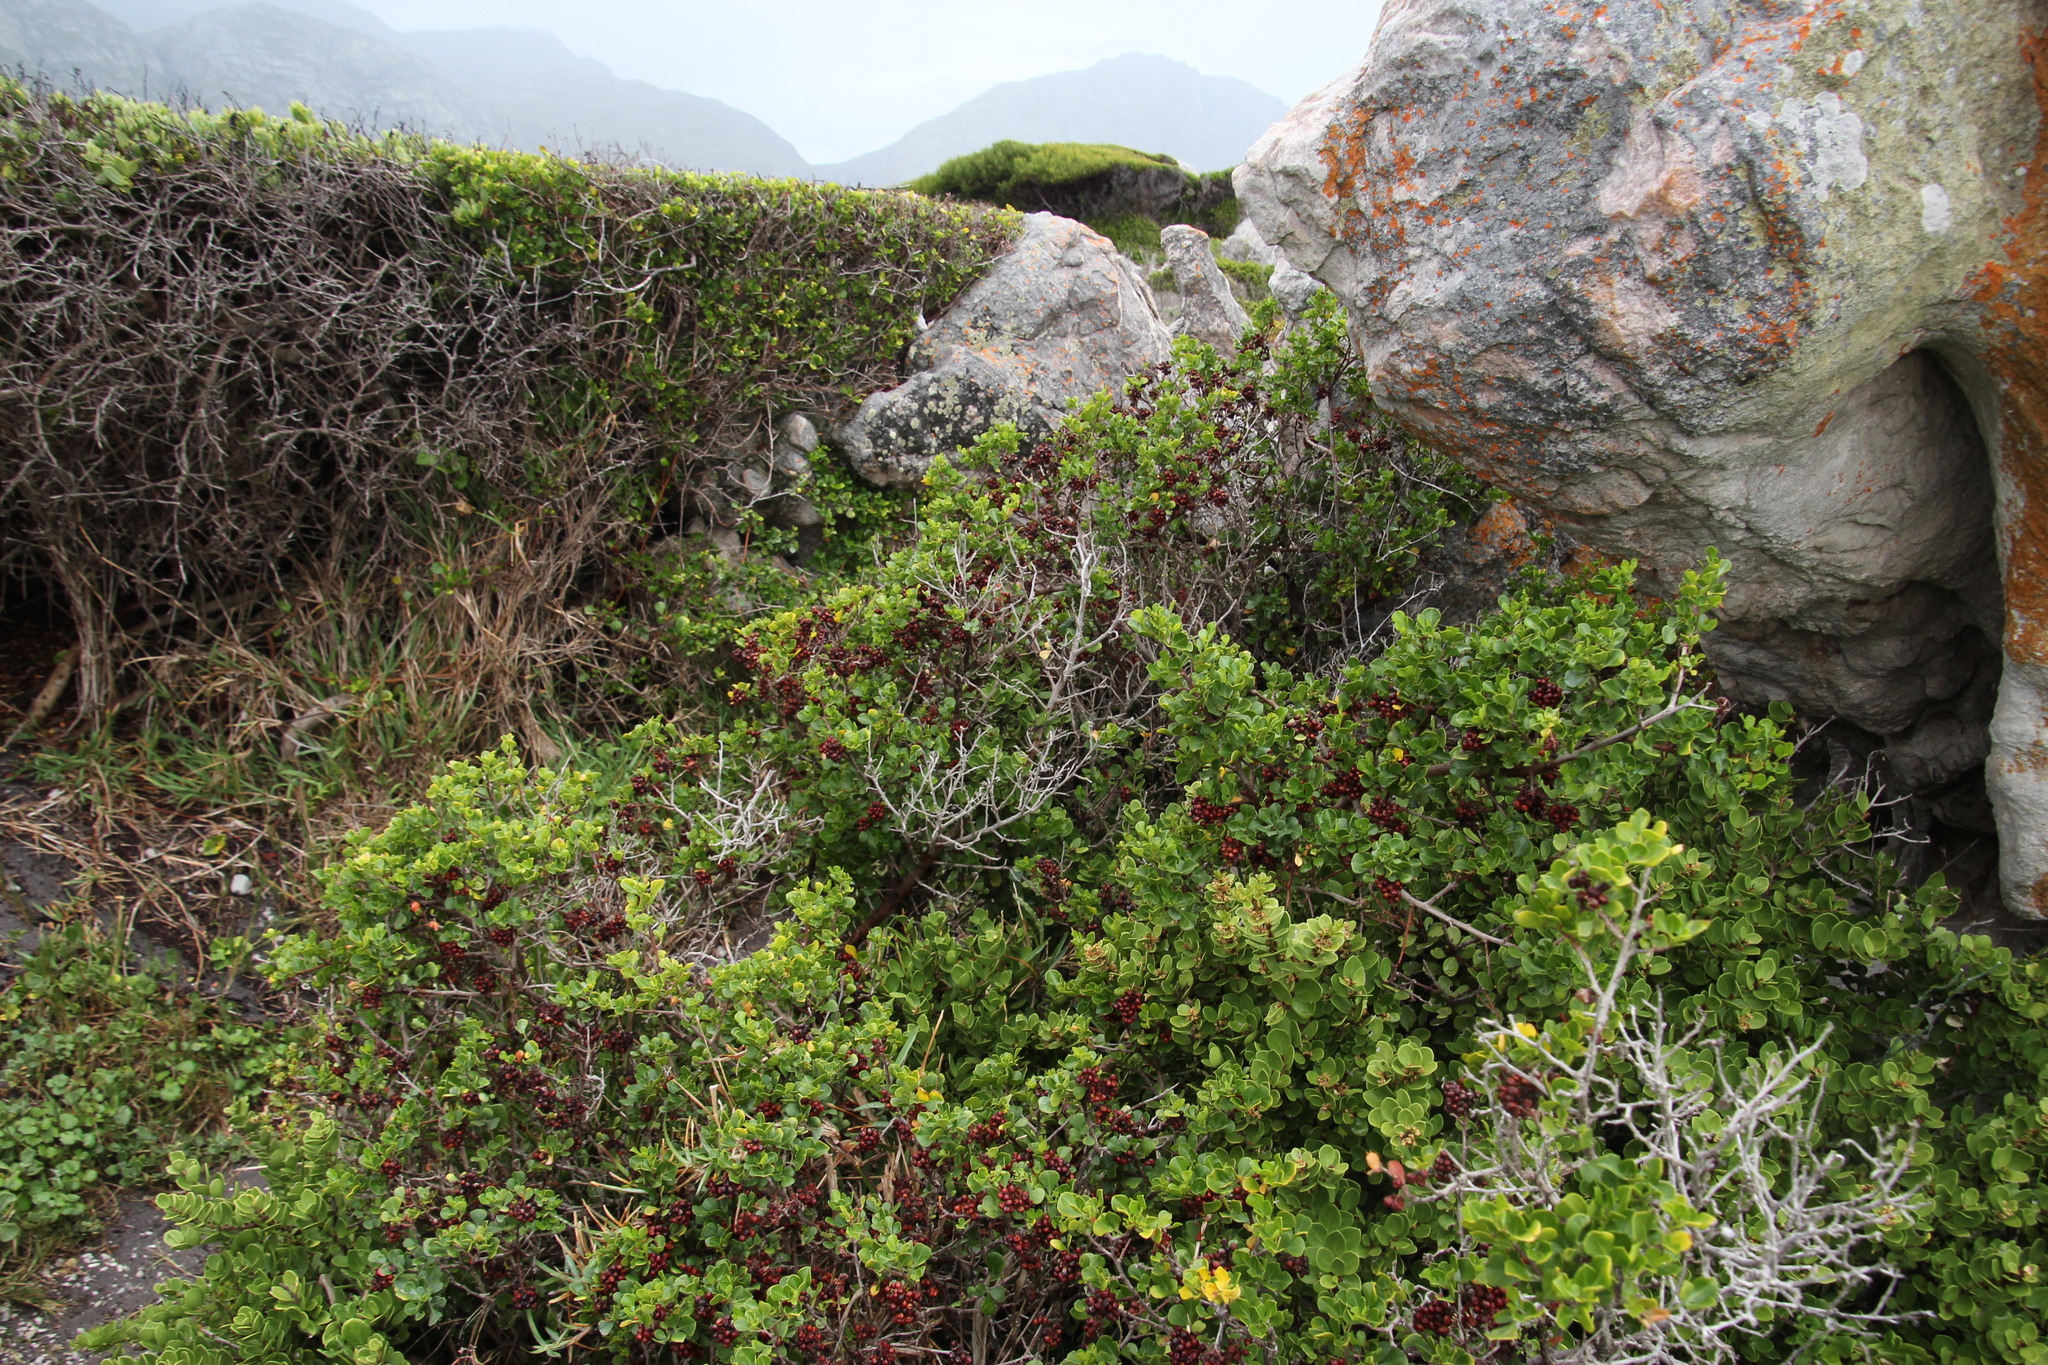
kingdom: Plantae
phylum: Tracheophyta
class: Magnoliopsida
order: Sapindales
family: Anacardiaceae
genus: Searsia
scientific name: Searsia glauca
